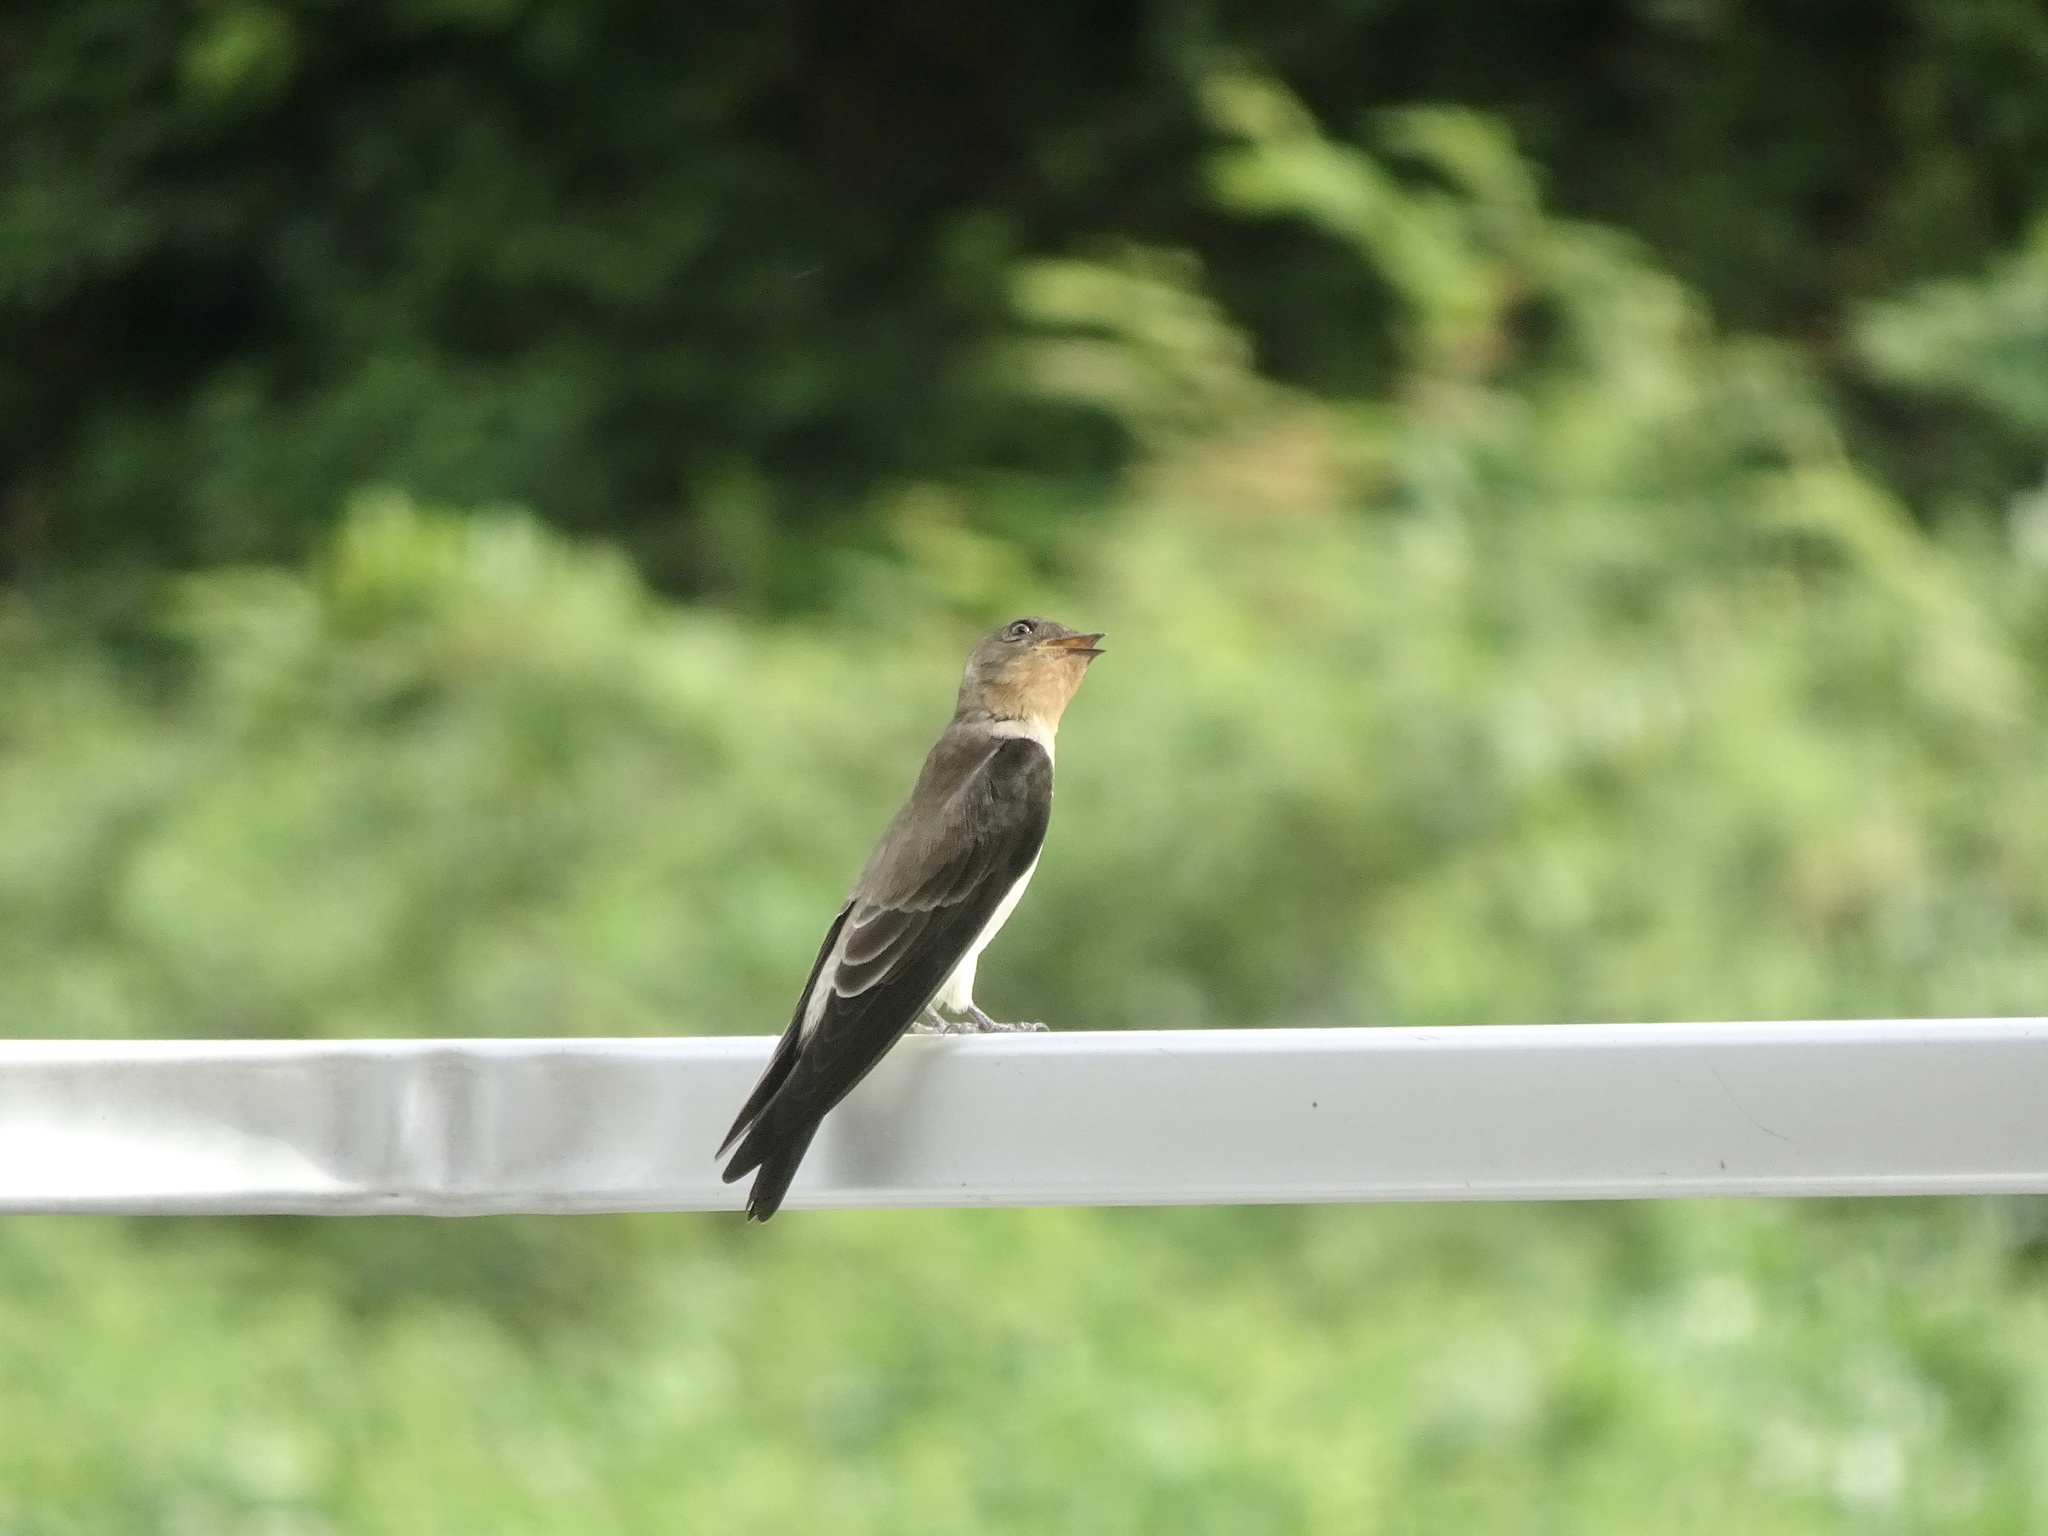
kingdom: Animalia
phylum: Chordata
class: Aves
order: Passeriformes
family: Hirundinidae
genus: Stelgidopteryx
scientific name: Stelgidopteryx ruficollis
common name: Southern rough-winged swallow
